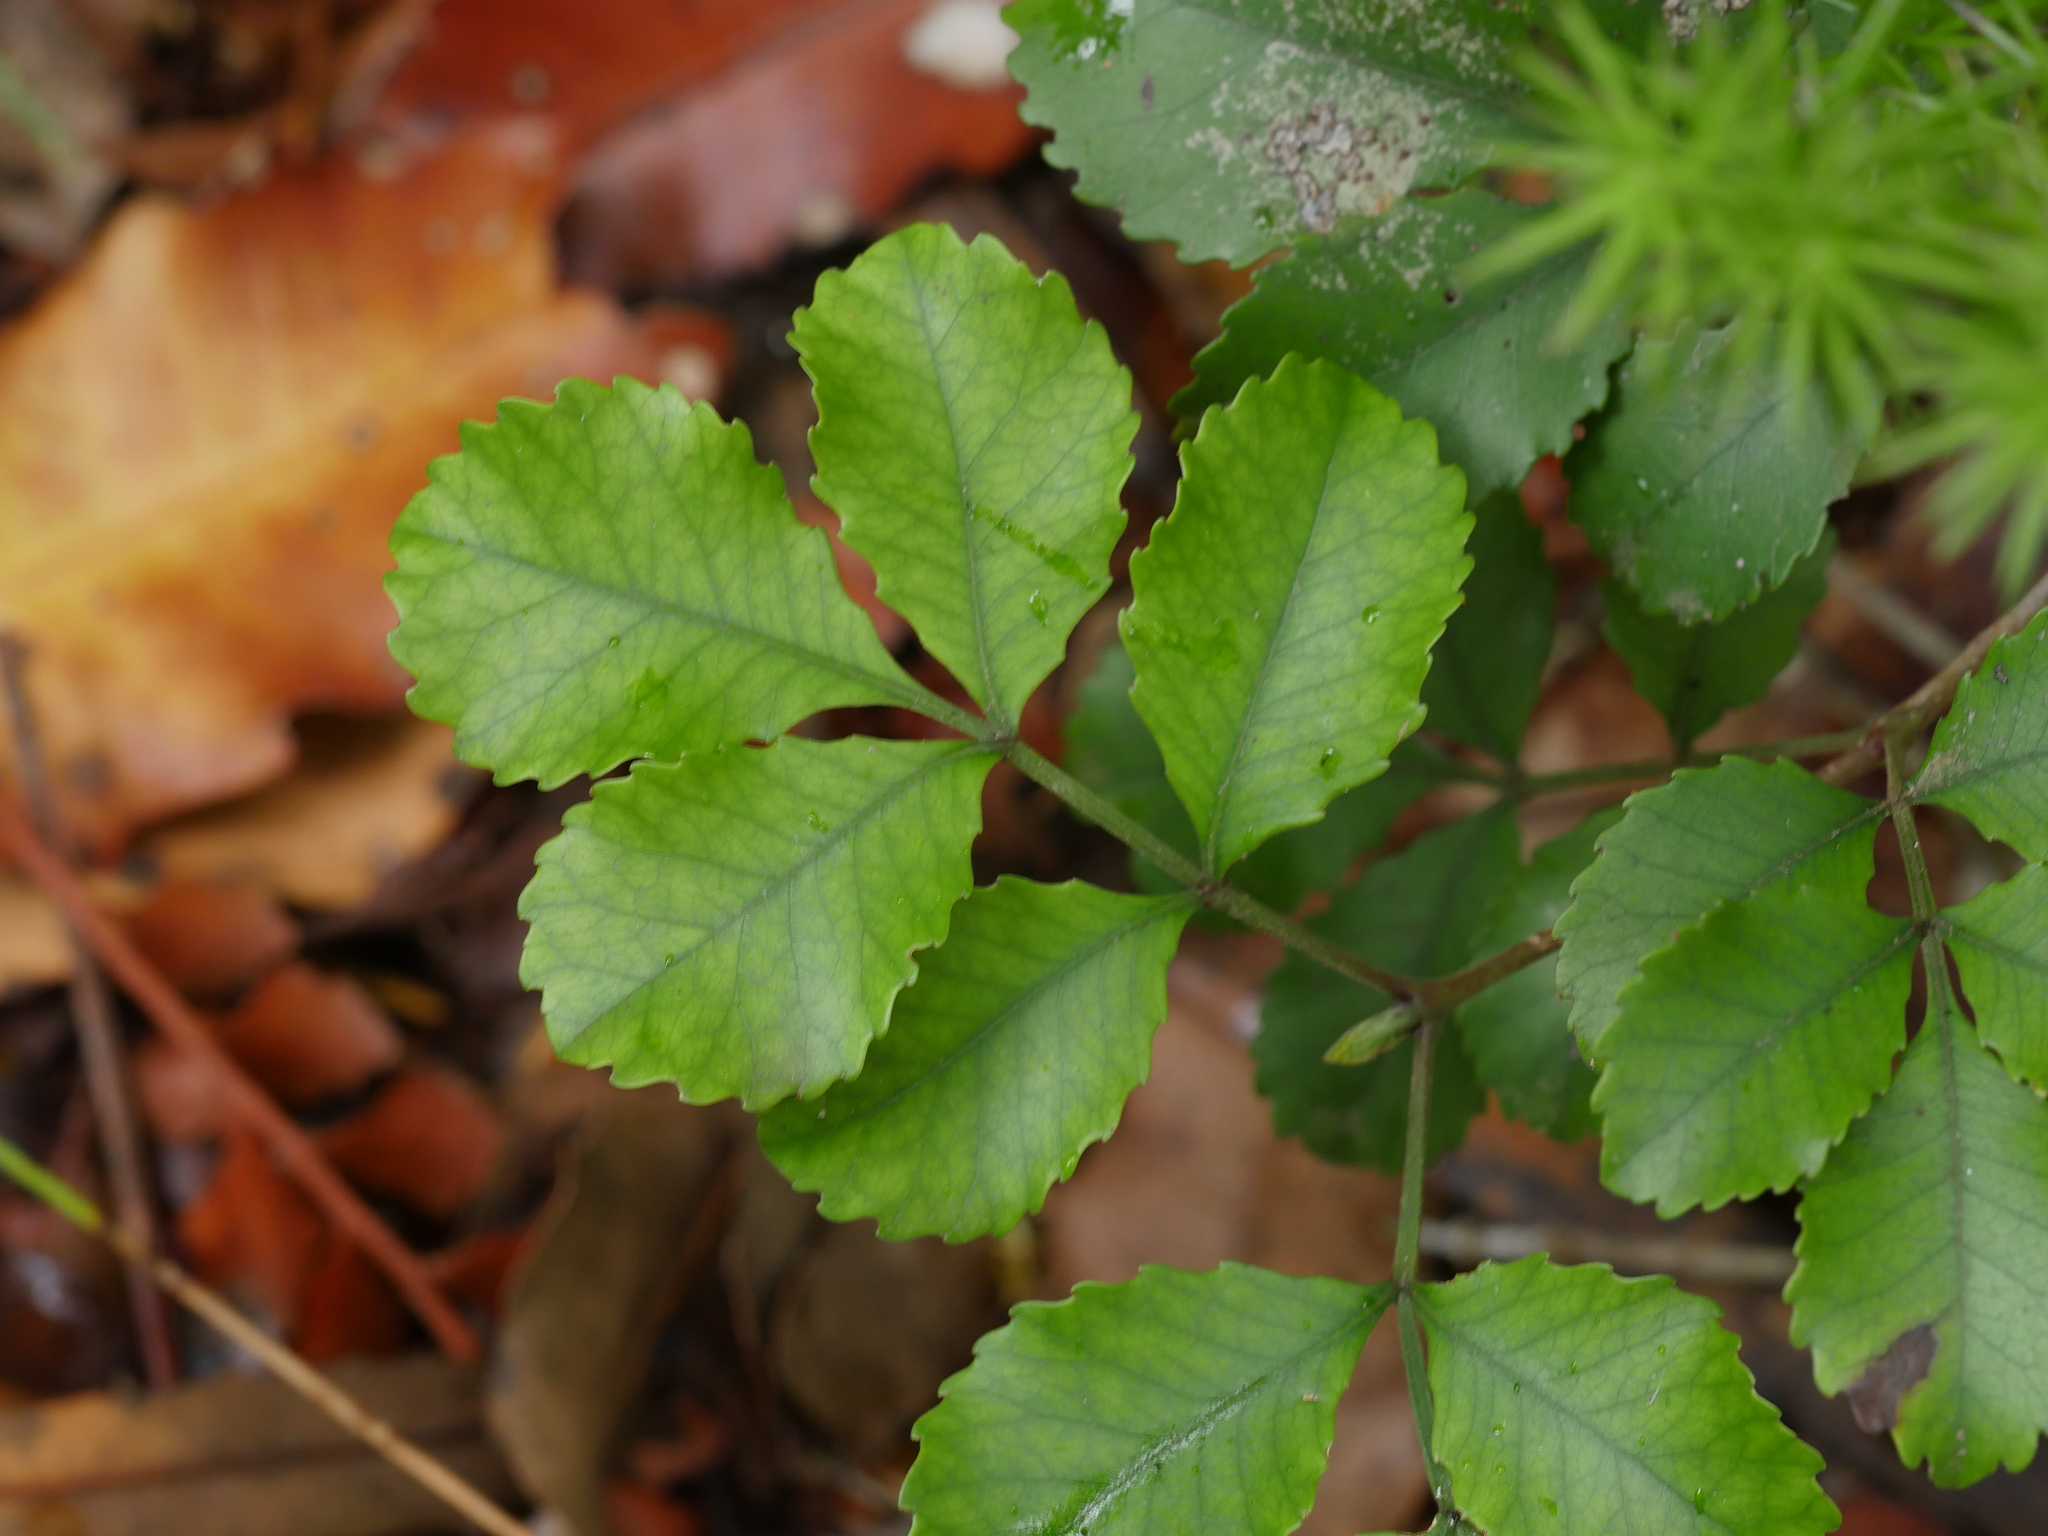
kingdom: Plantae
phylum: Tracheophyta
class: Magnoliopsida
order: Oxalidales
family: Cunoniaceae
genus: Pterophylla
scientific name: Pterophylla sylvicola
